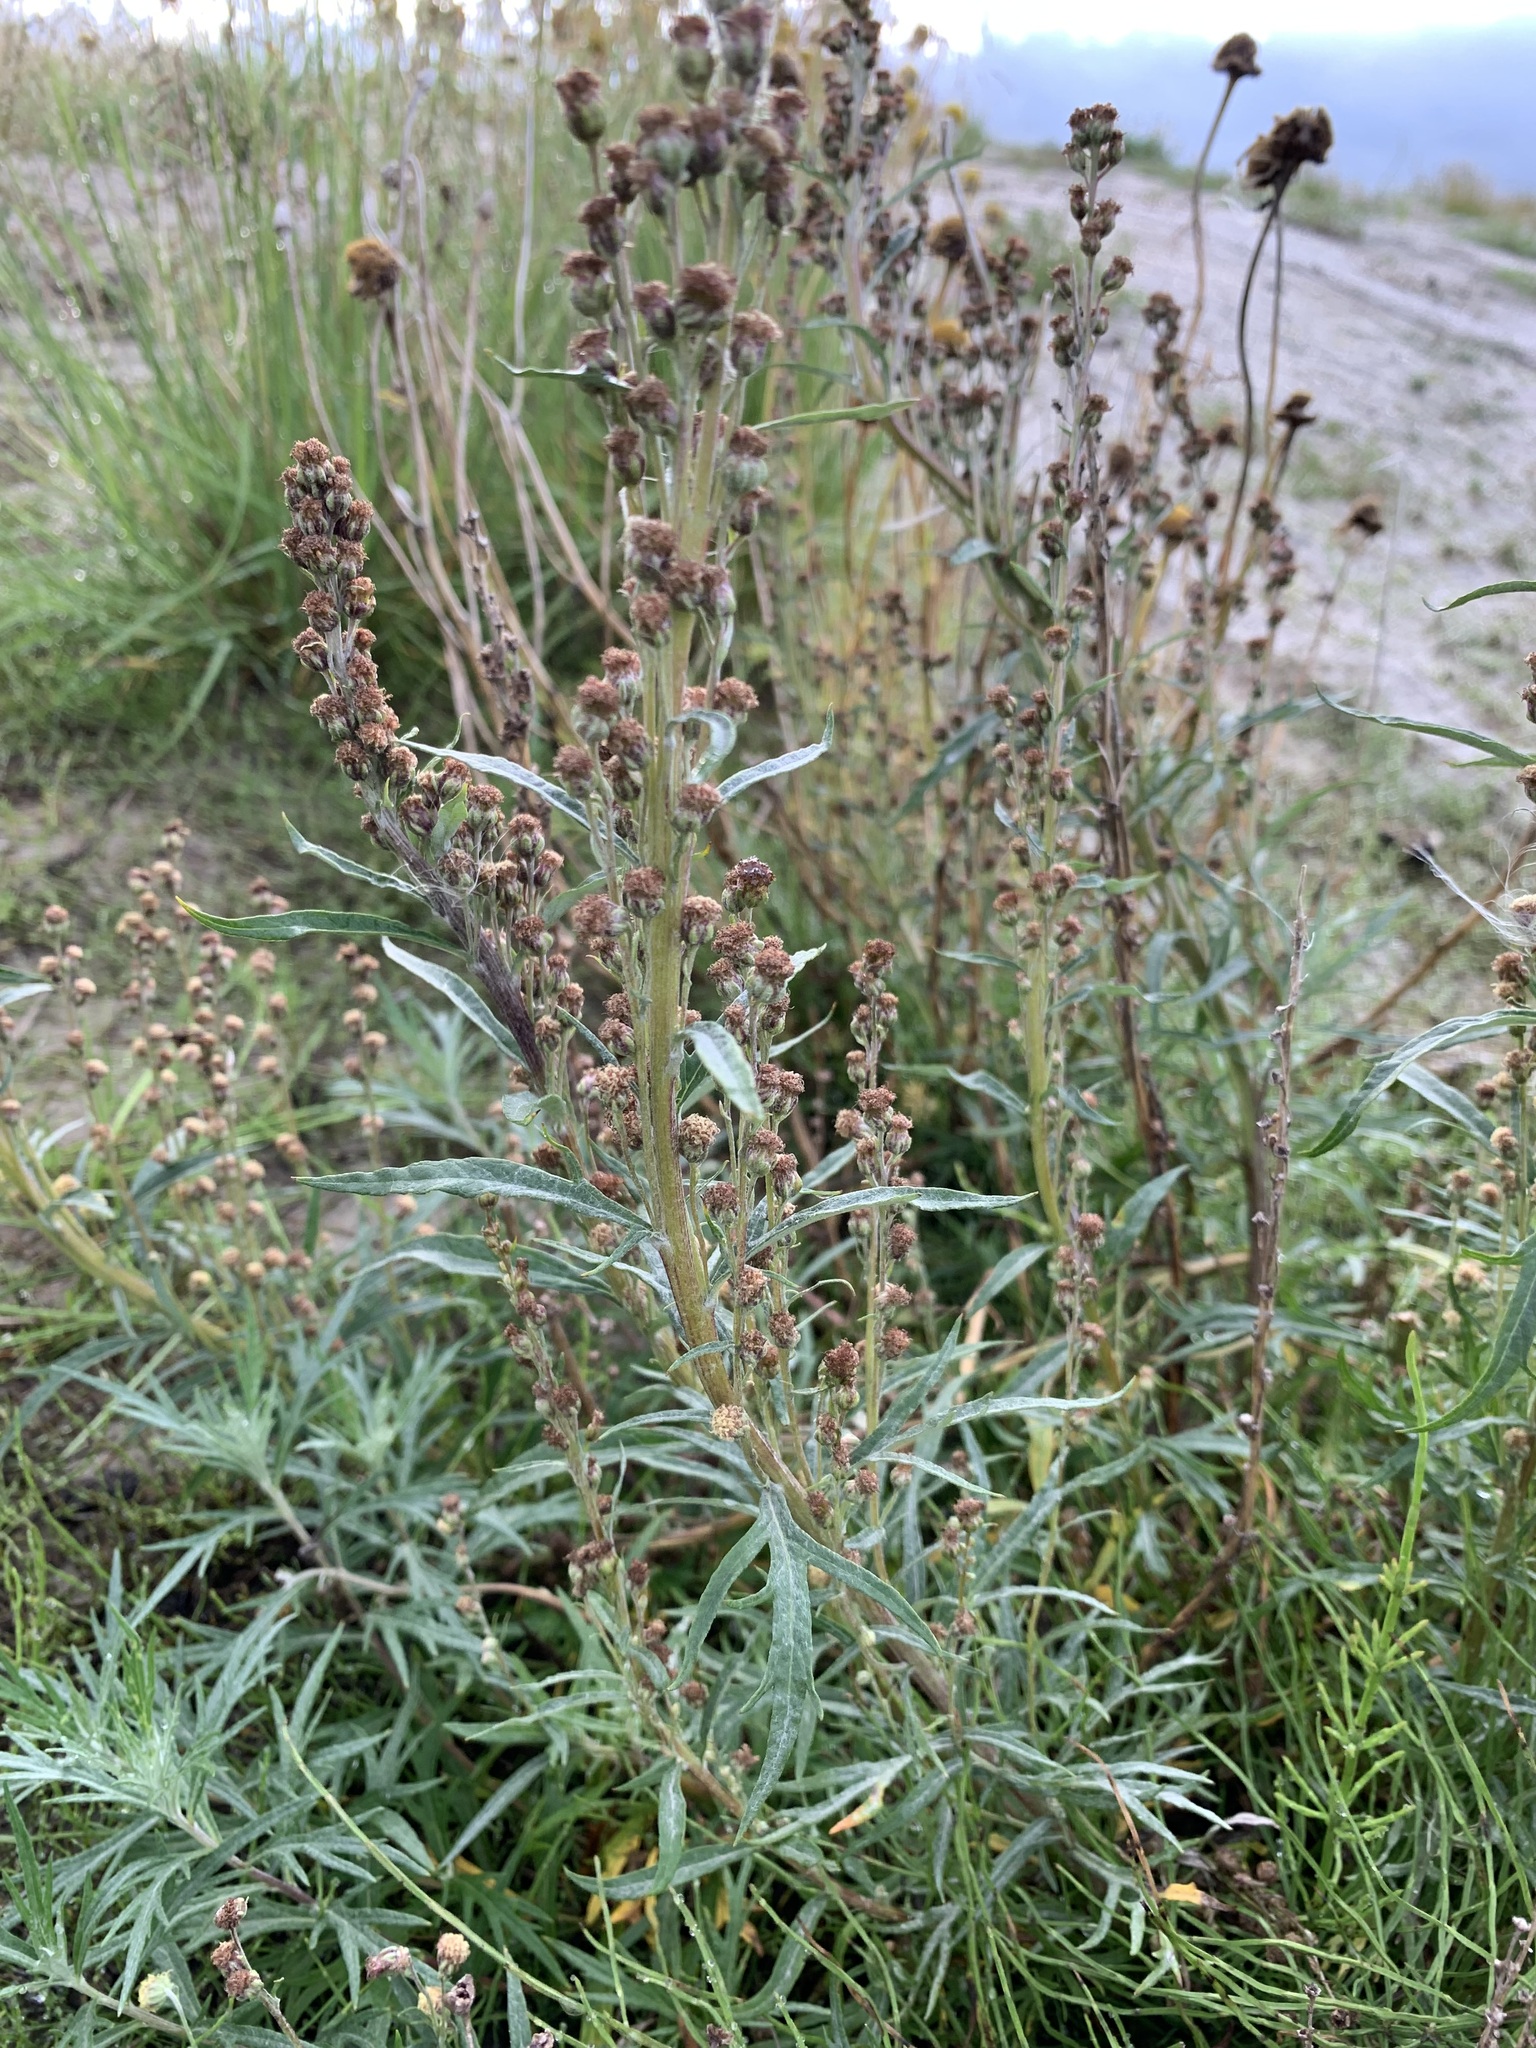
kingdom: Plantae
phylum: Tracheophyta
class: Magnoliopsida
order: Asterales
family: Asteraceae
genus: Artemisia
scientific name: Artemisia tilesii
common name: Aleutian mugwort
